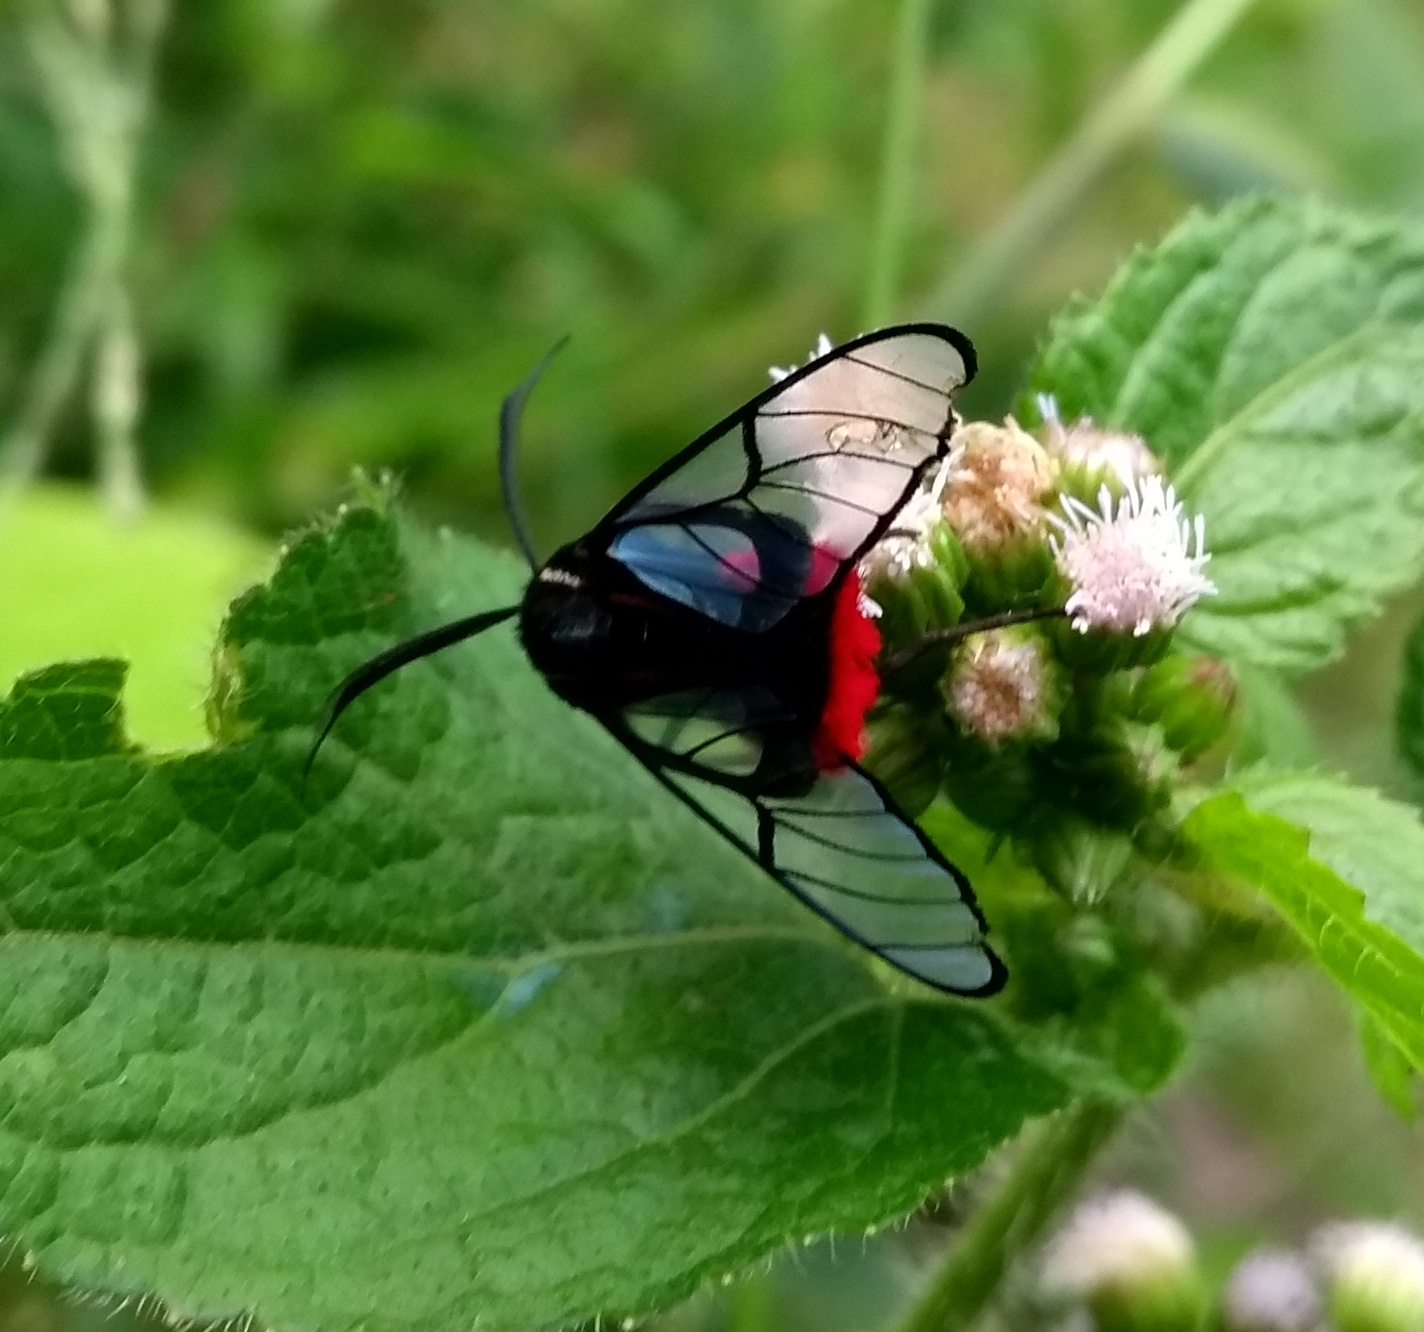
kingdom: Animalia
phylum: Arthropoda
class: Insecta
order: Lepidoptera
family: Erebidae
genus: Dinia
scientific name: Dinia eagrus
